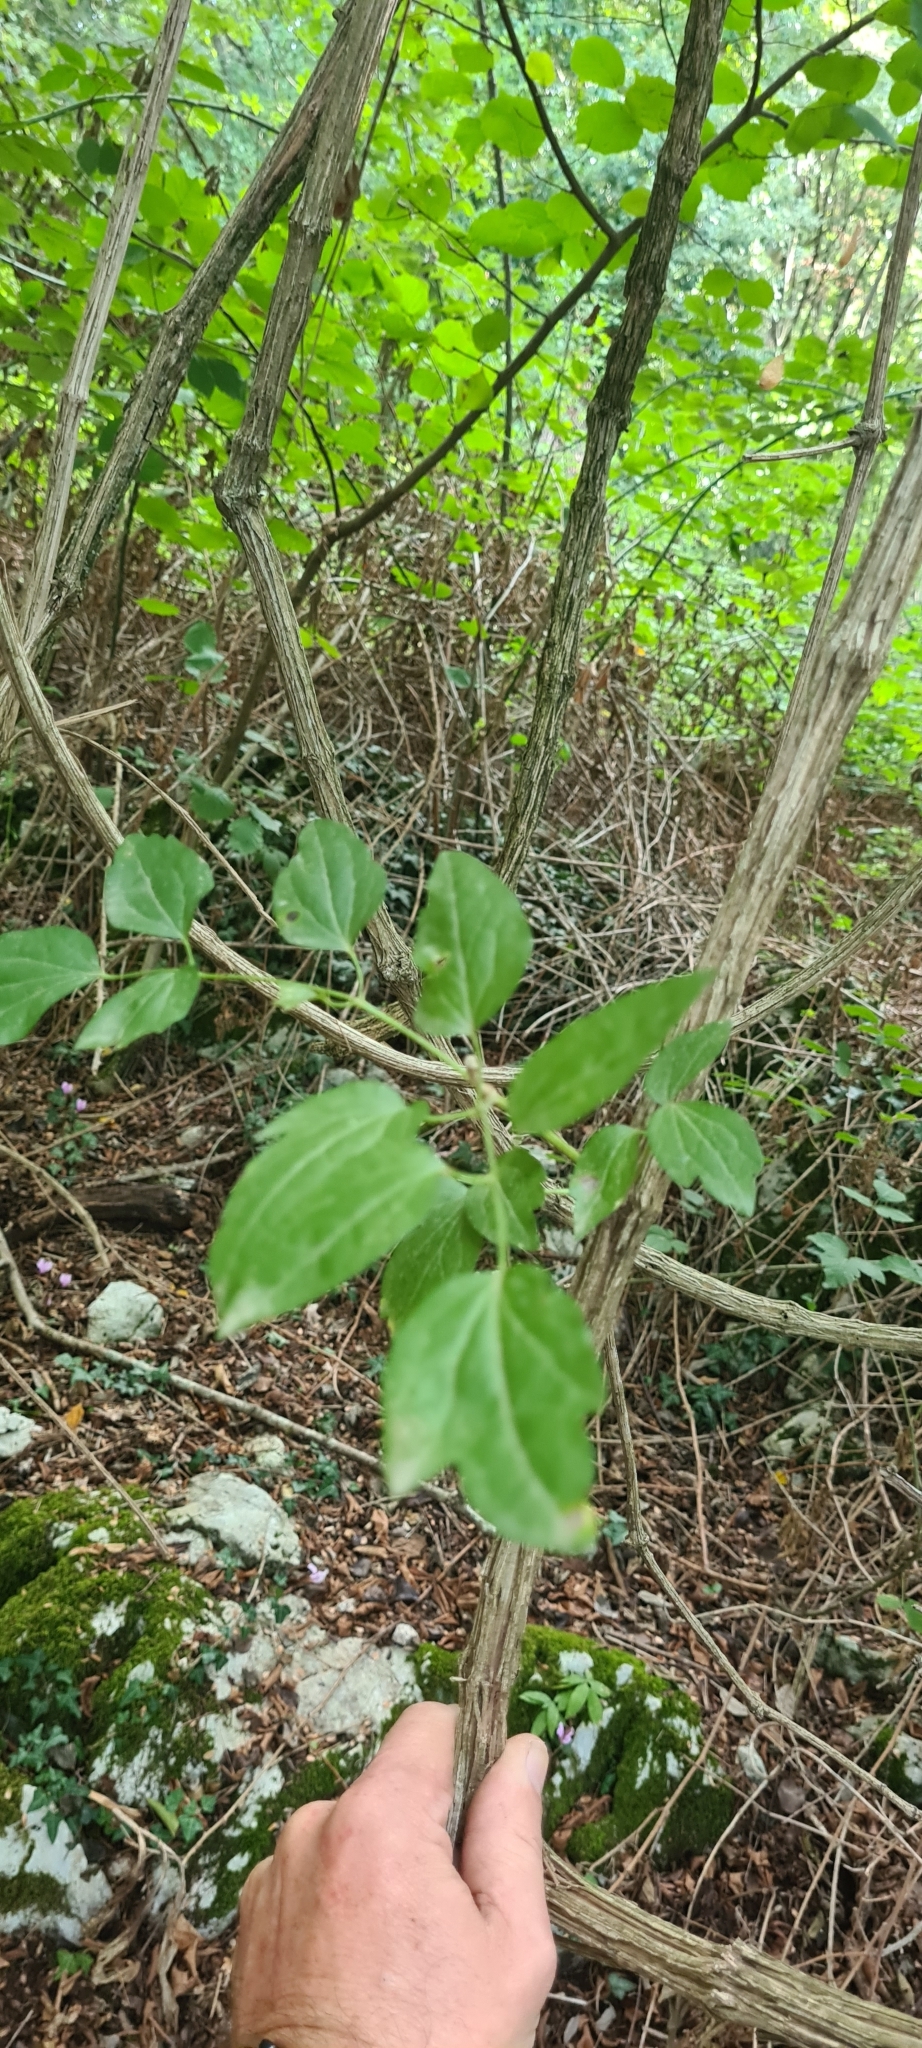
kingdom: Plantae
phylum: Tracheophyta
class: Magnoliopsida
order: Ranunculales
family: Ranunculaceae
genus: Clematis
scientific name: Clematis vitalba
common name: Evergreen clematis
